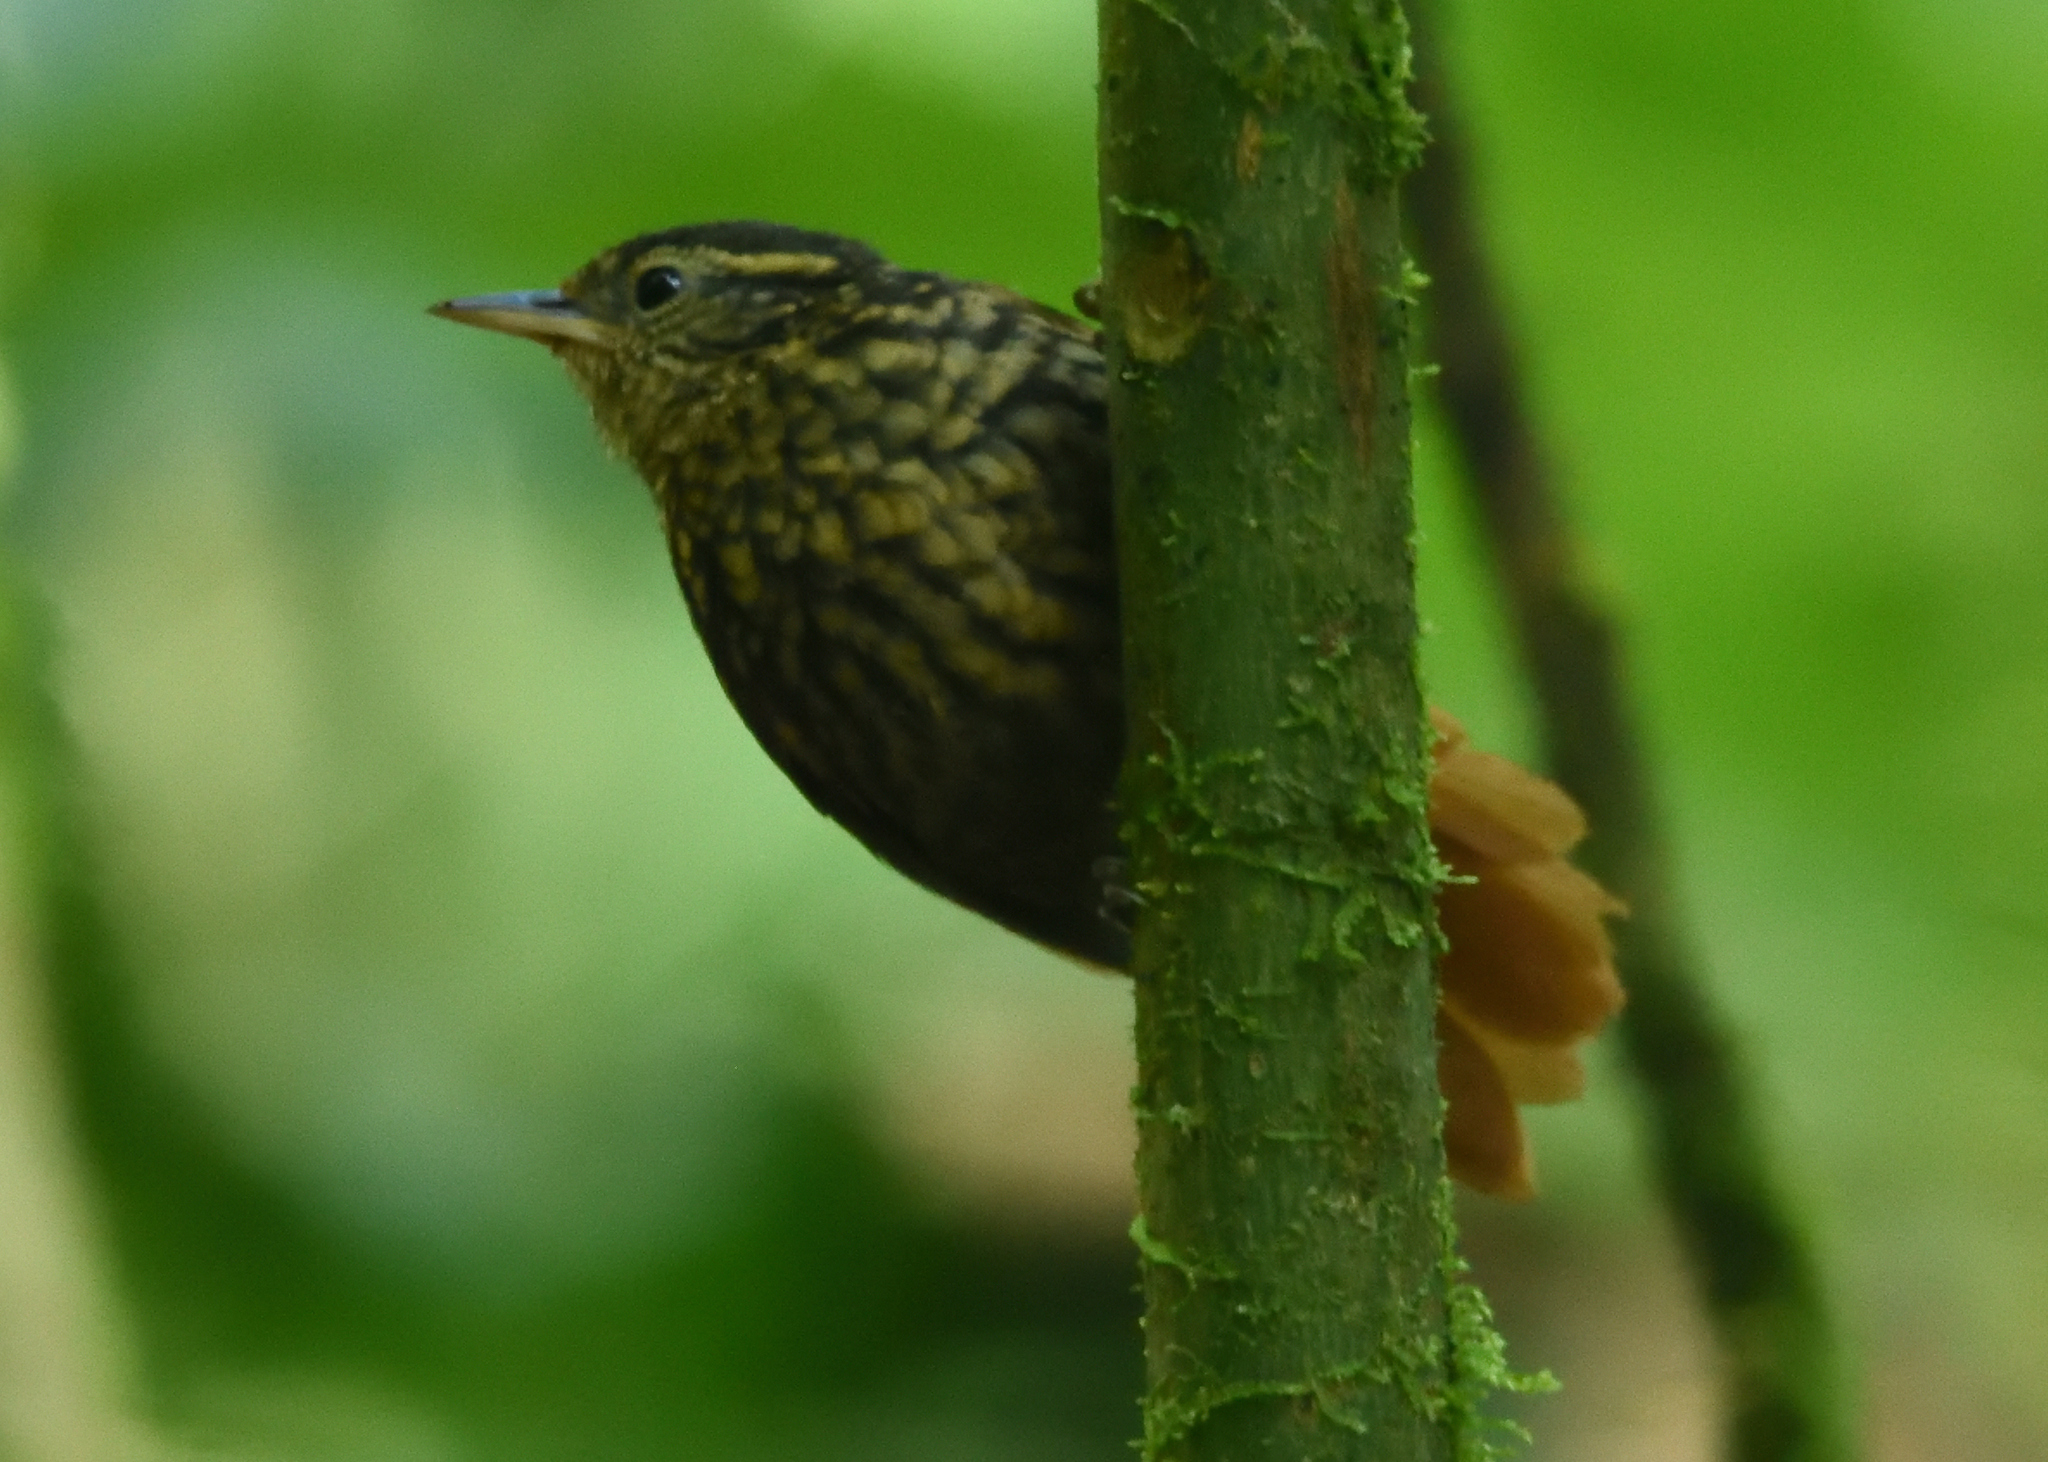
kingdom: Animalia
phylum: Chordata
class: Aves
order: Passeriformes
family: Furnariidae
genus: Premnornis
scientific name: Premnornis guttuliger
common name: Rusty-winged barbtail
